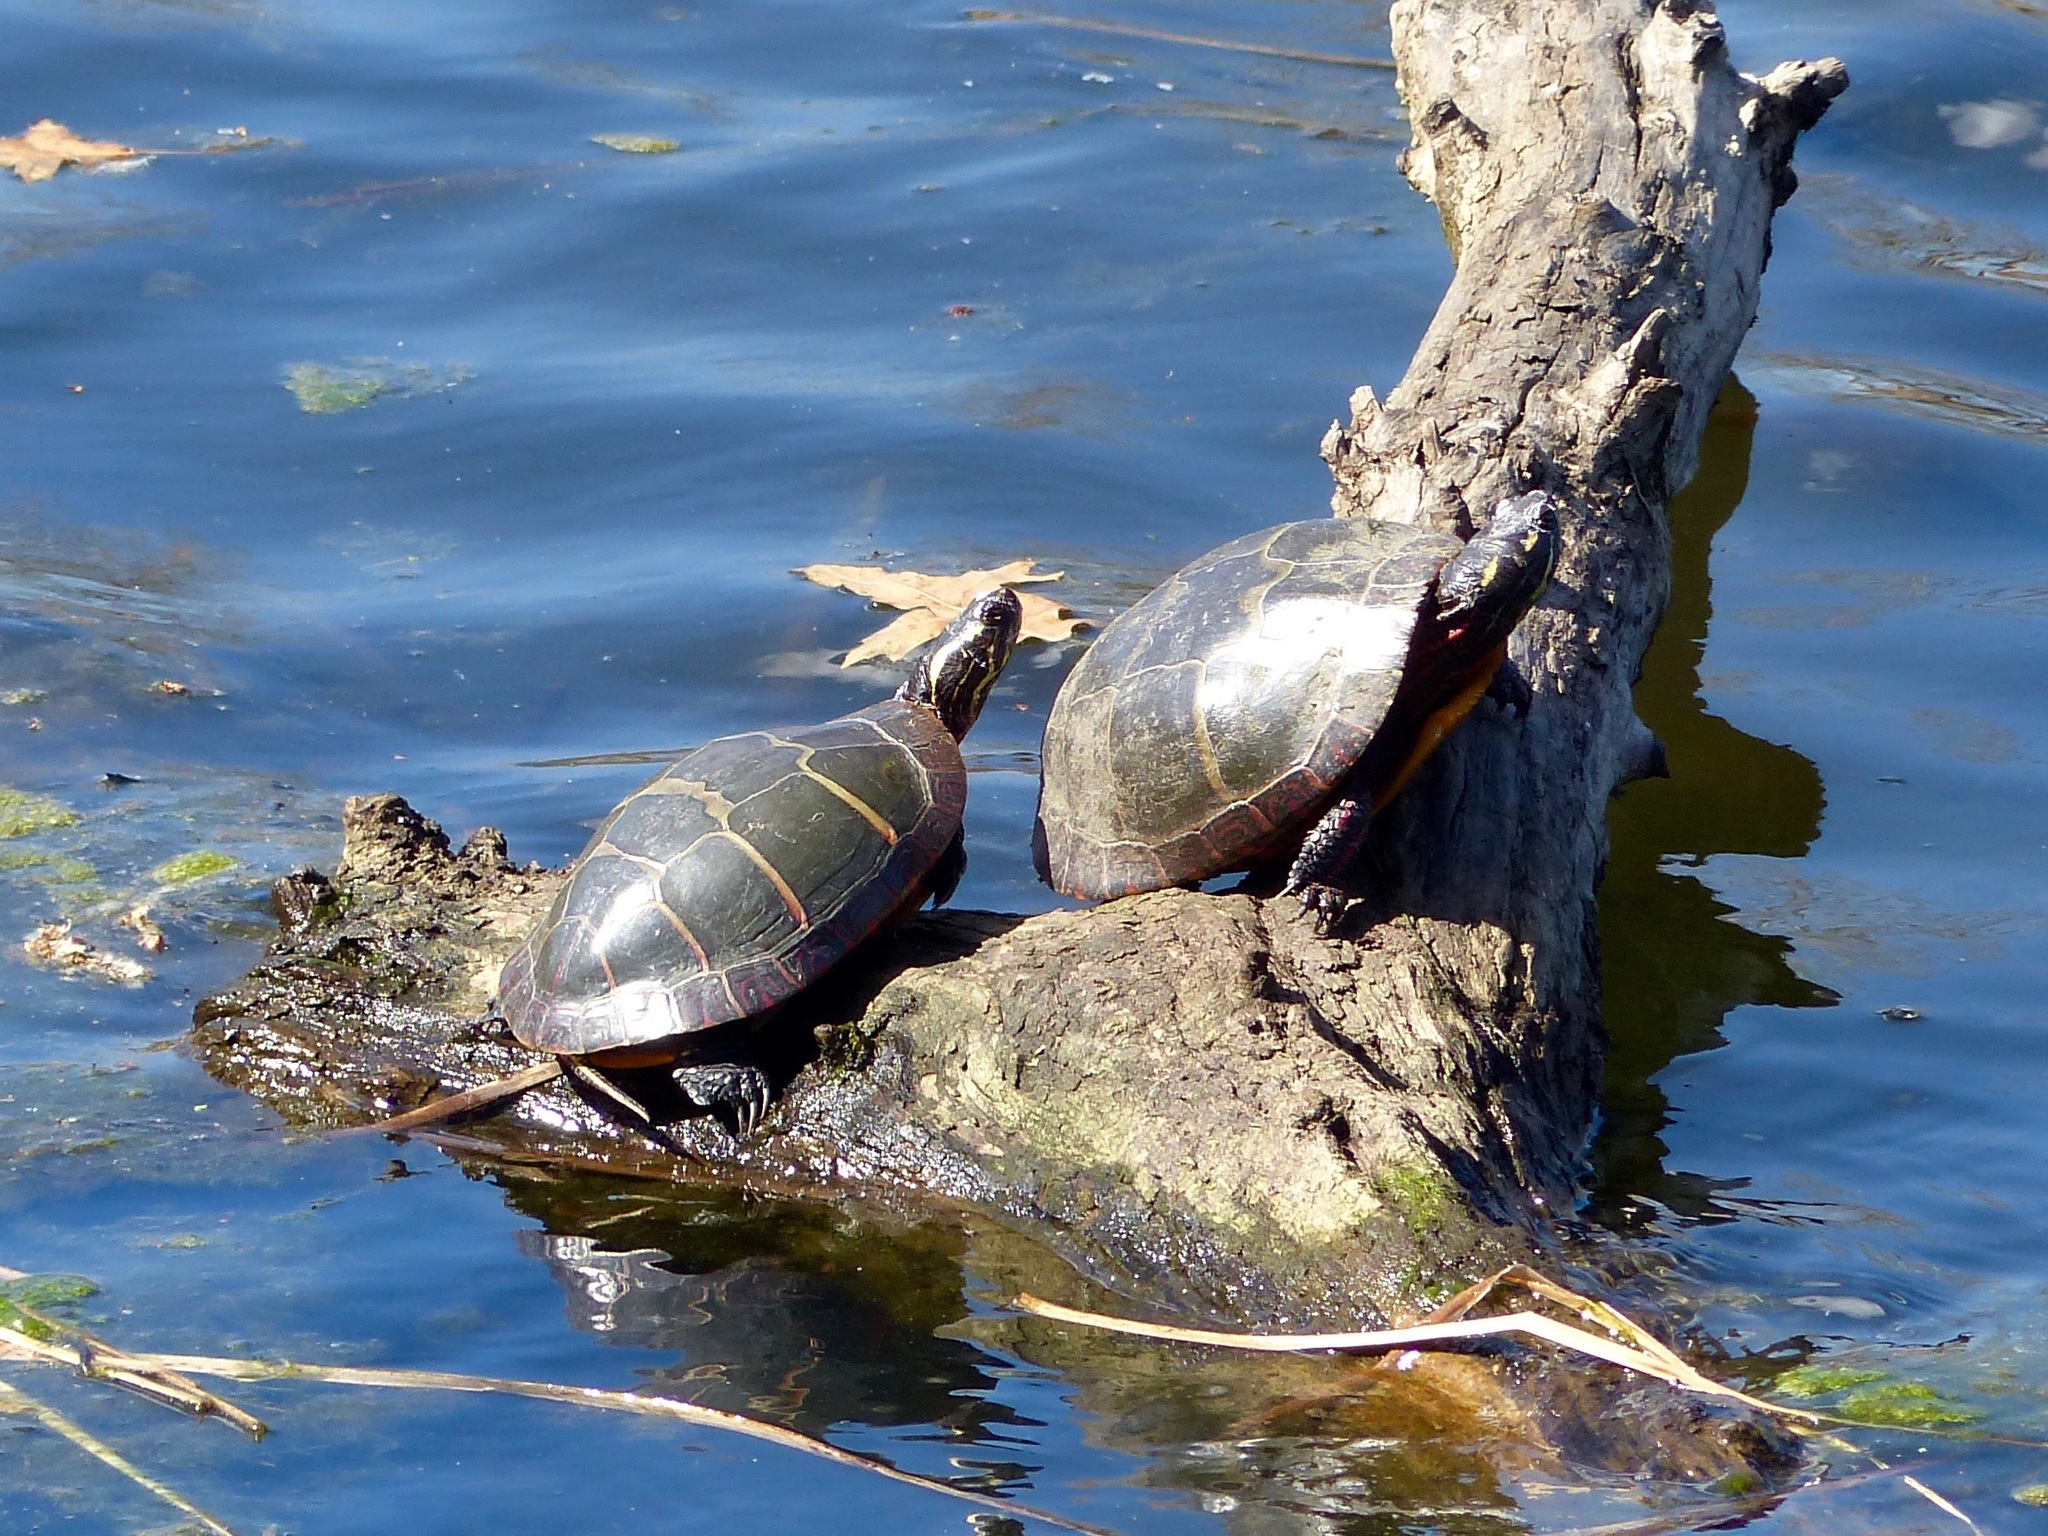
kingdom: Animalia
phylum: Chordata
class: Testudines
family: Emydidae
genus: Chrysemys
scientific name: Chrysemys picta
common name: Painted turtle
